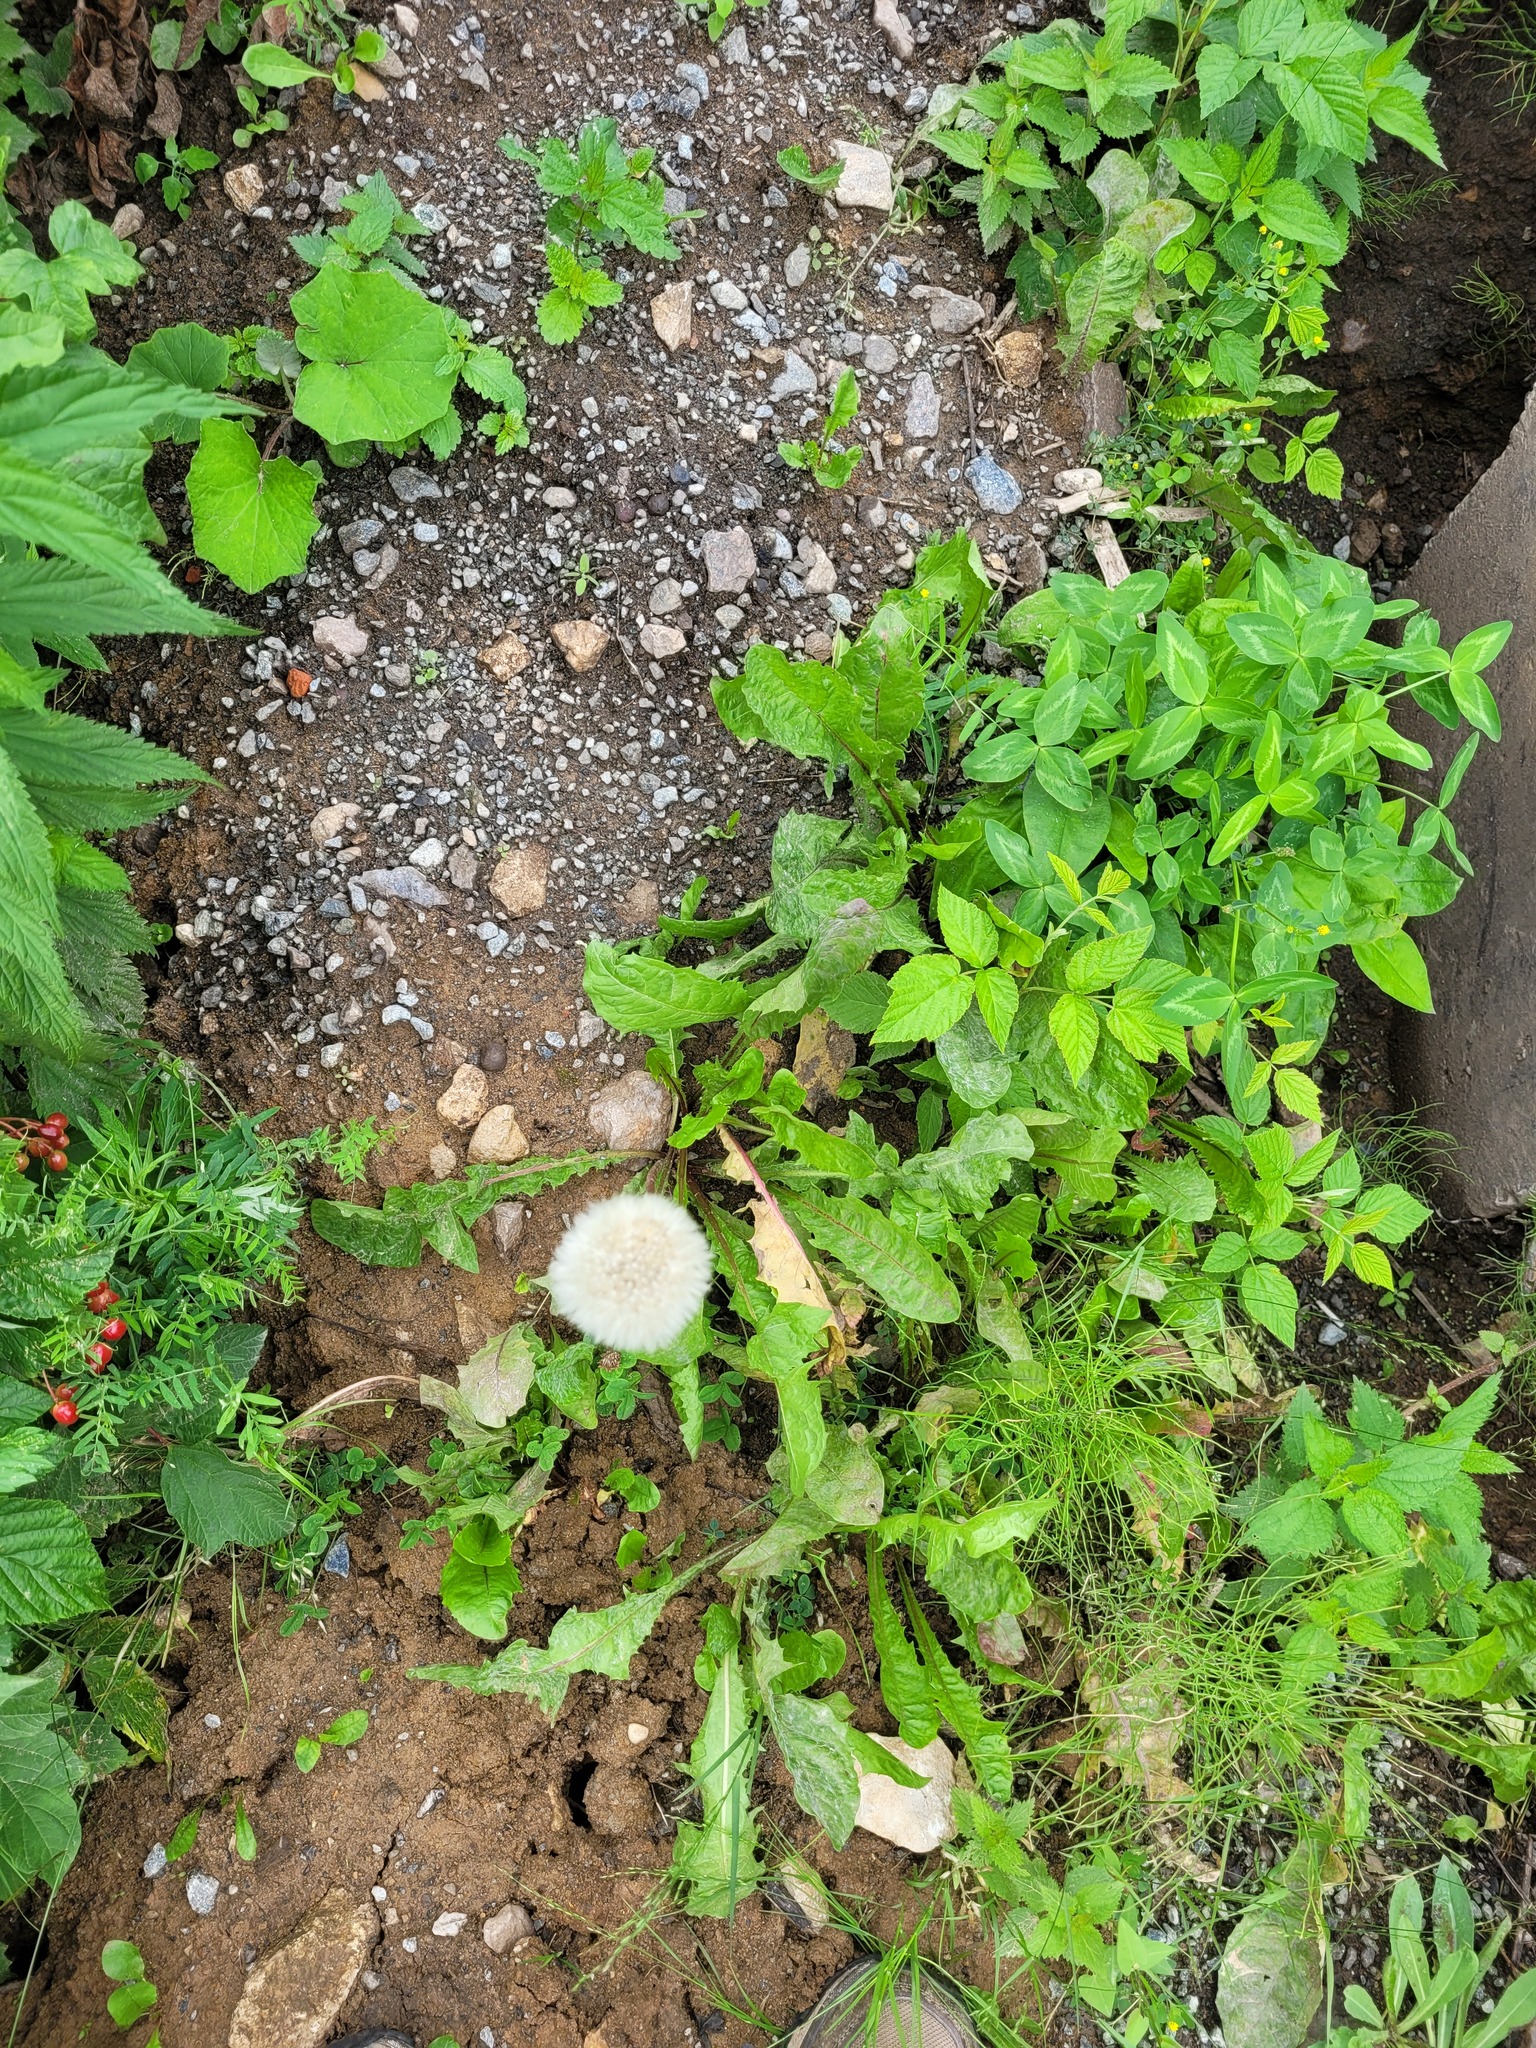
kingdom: Plantae
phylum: Tracheophyta
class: Magnoliopsida
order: Asterales
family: Asteraceae
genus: Taraxacum
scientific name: Taraxacum officinale
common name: Common dandelion
